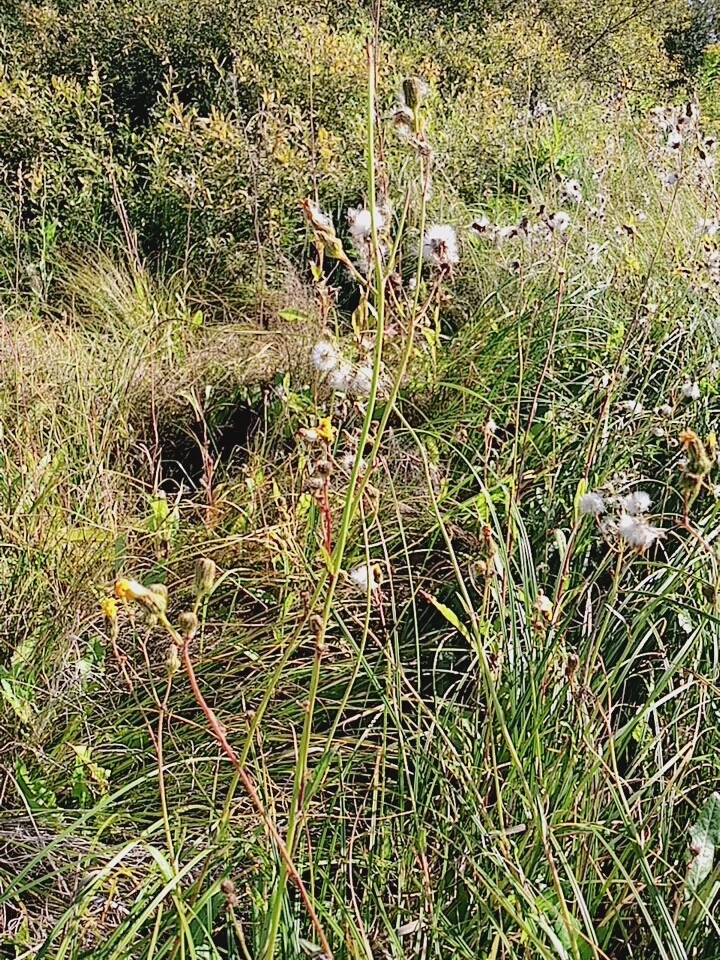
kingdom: Plantae
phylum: Tracheophyta
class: Magnoliopsida
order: Asterales
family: Asteraceae
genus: Sonchus
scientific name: Sonchus arvensis
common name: Perennial sow-thistle
